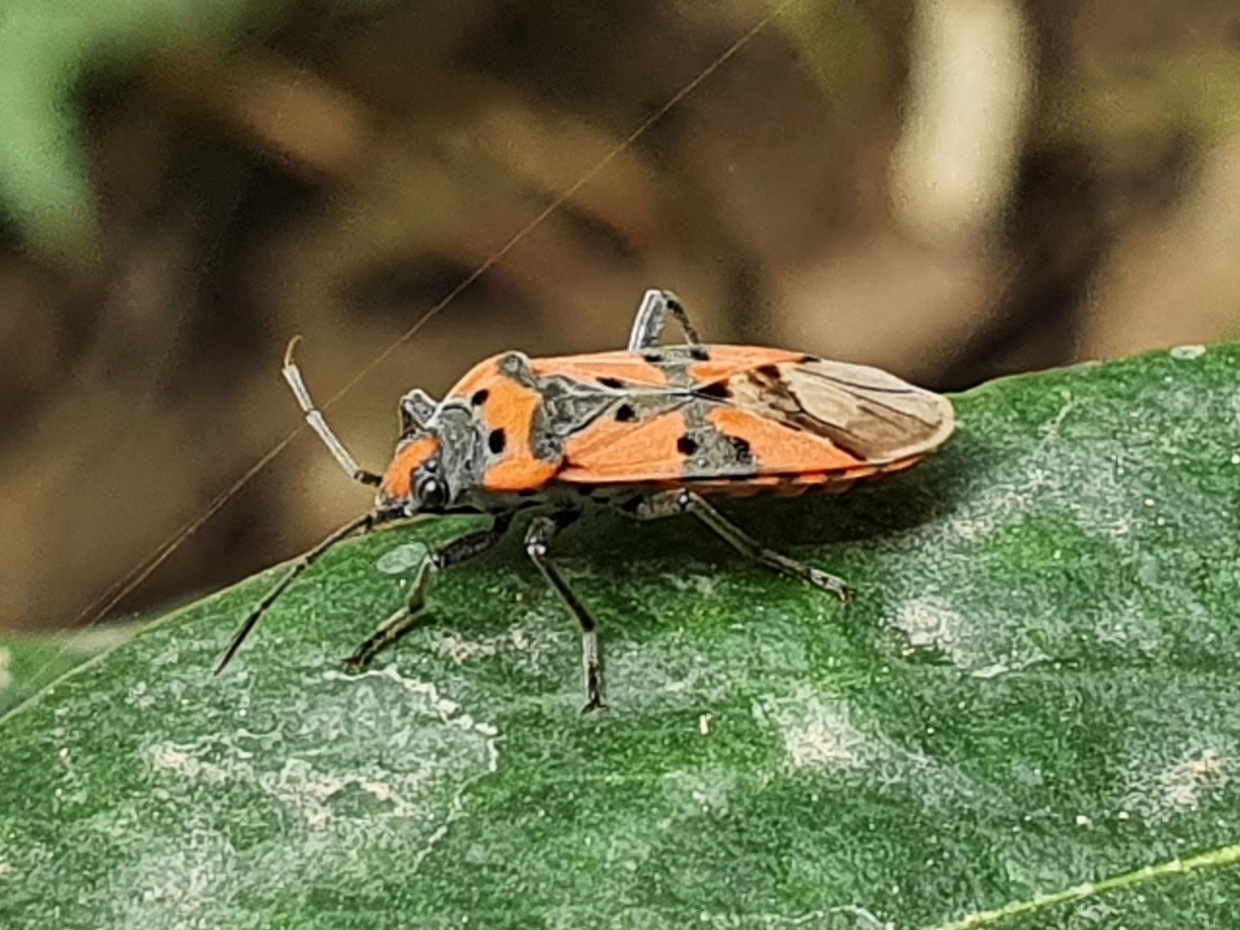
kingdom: Animalia
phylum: Arthropoda
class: Insecta
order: Hemiptera
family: Lygaeidae
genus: Lygaeus
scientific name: Lygaeus equestris
